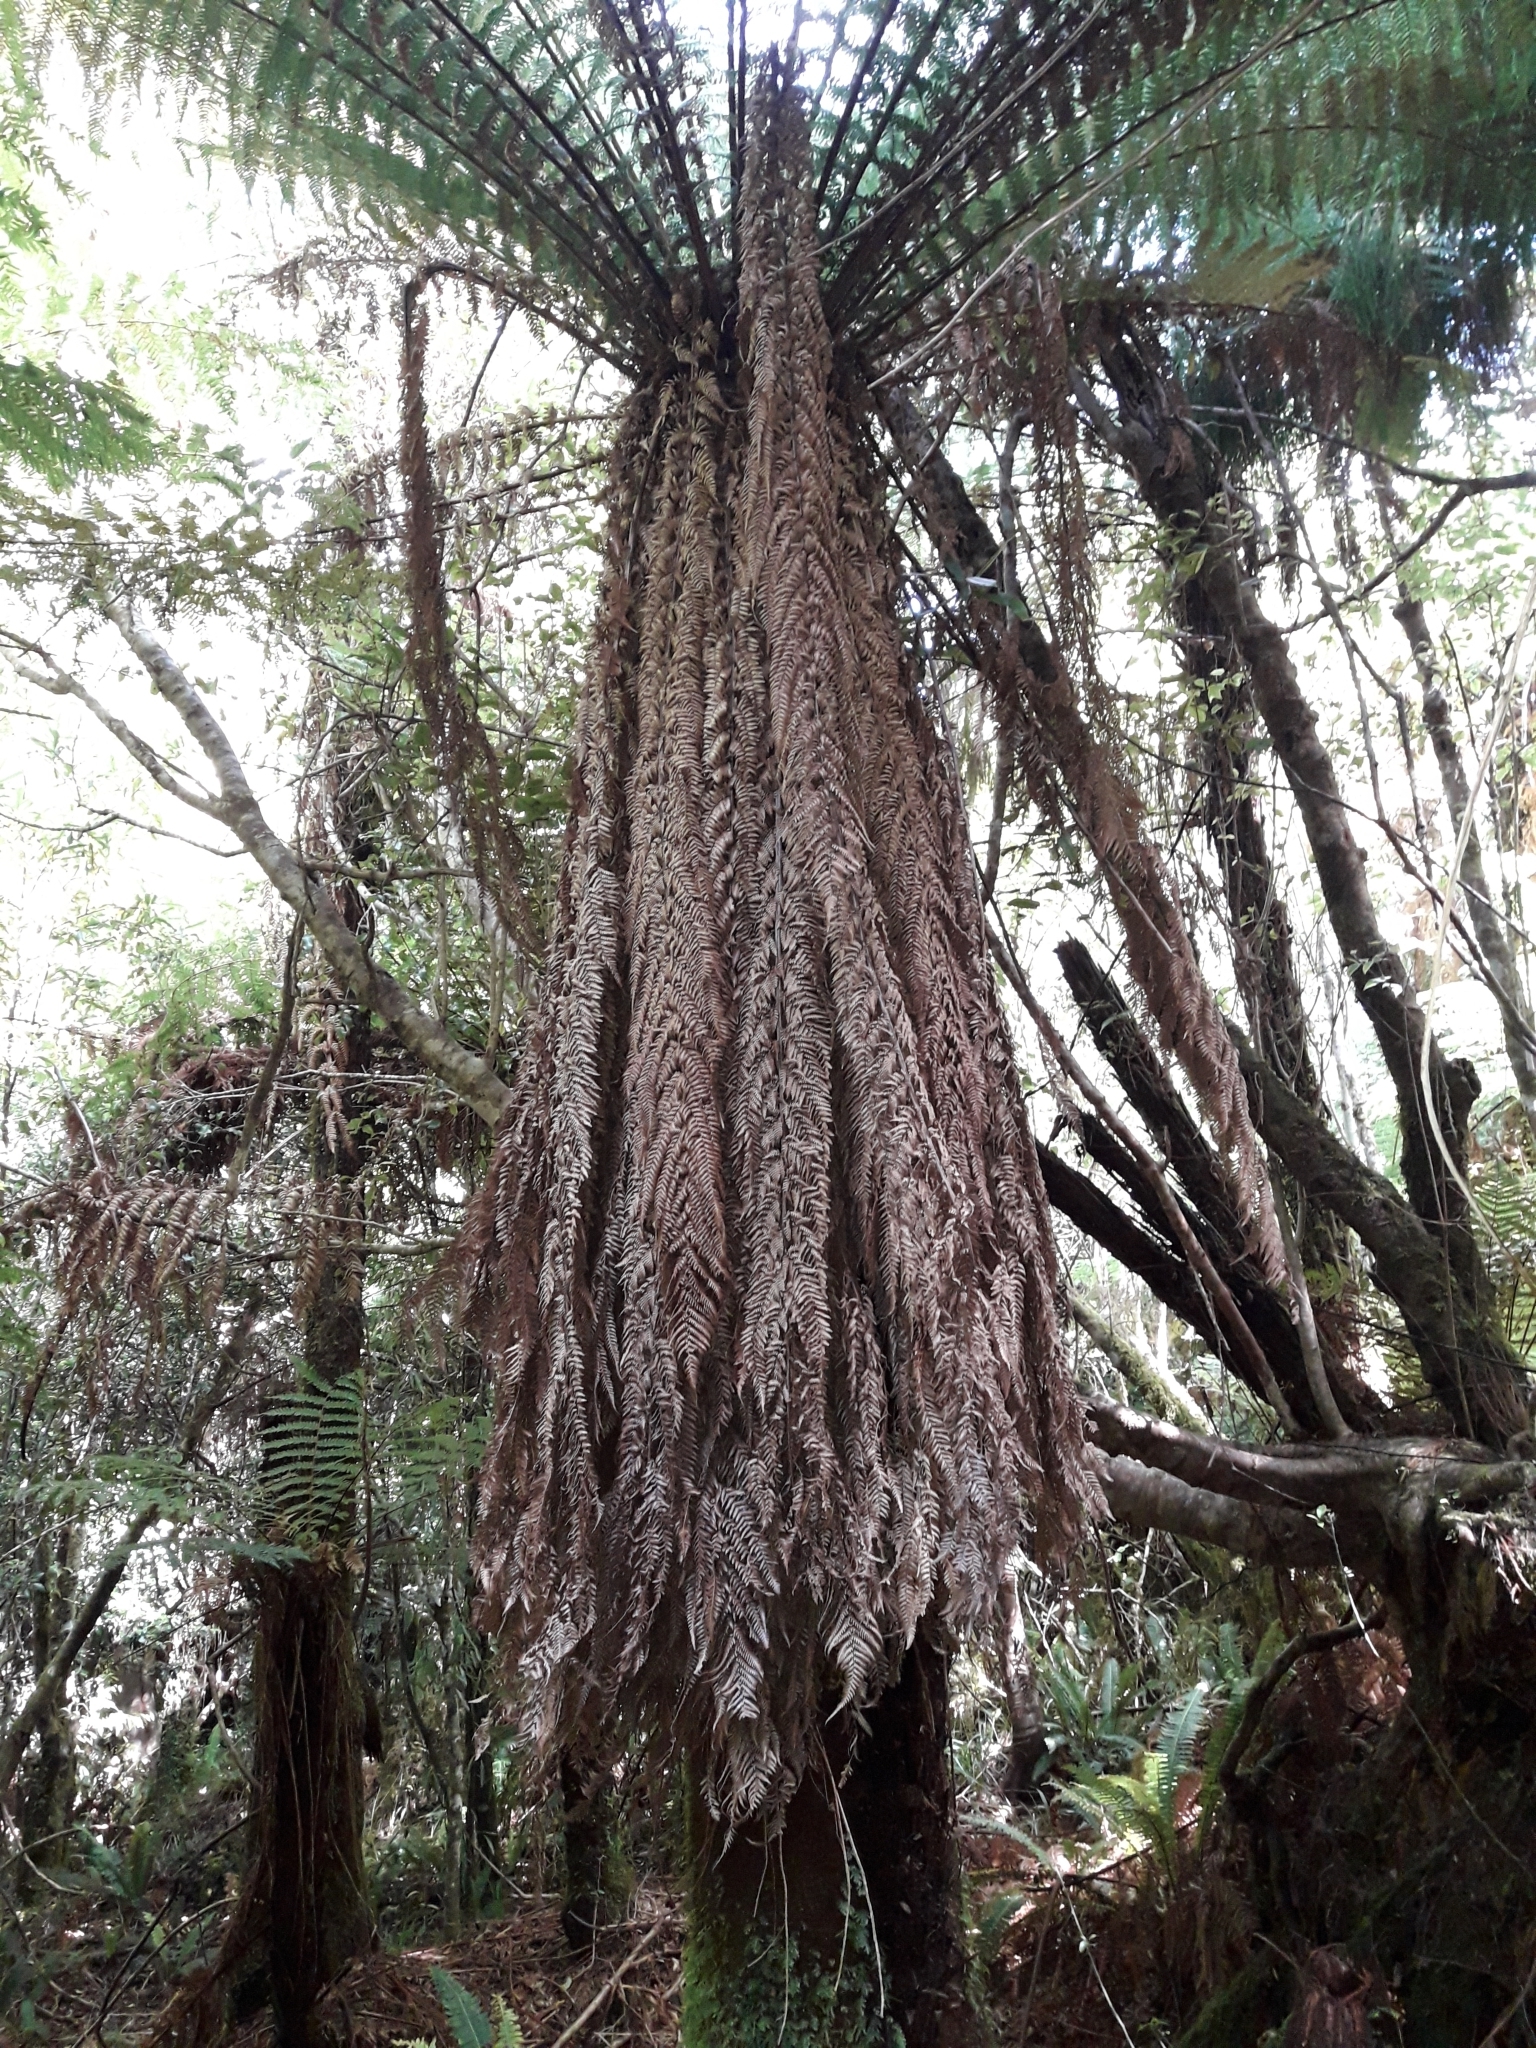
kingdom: Plantae
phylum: Tracheophyta
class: Polypodiopsida
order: Cyatheales
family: Dicksoniaceae
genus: Dicksonia
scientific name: Dicksonia fibrosa
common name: Golden tree fern
